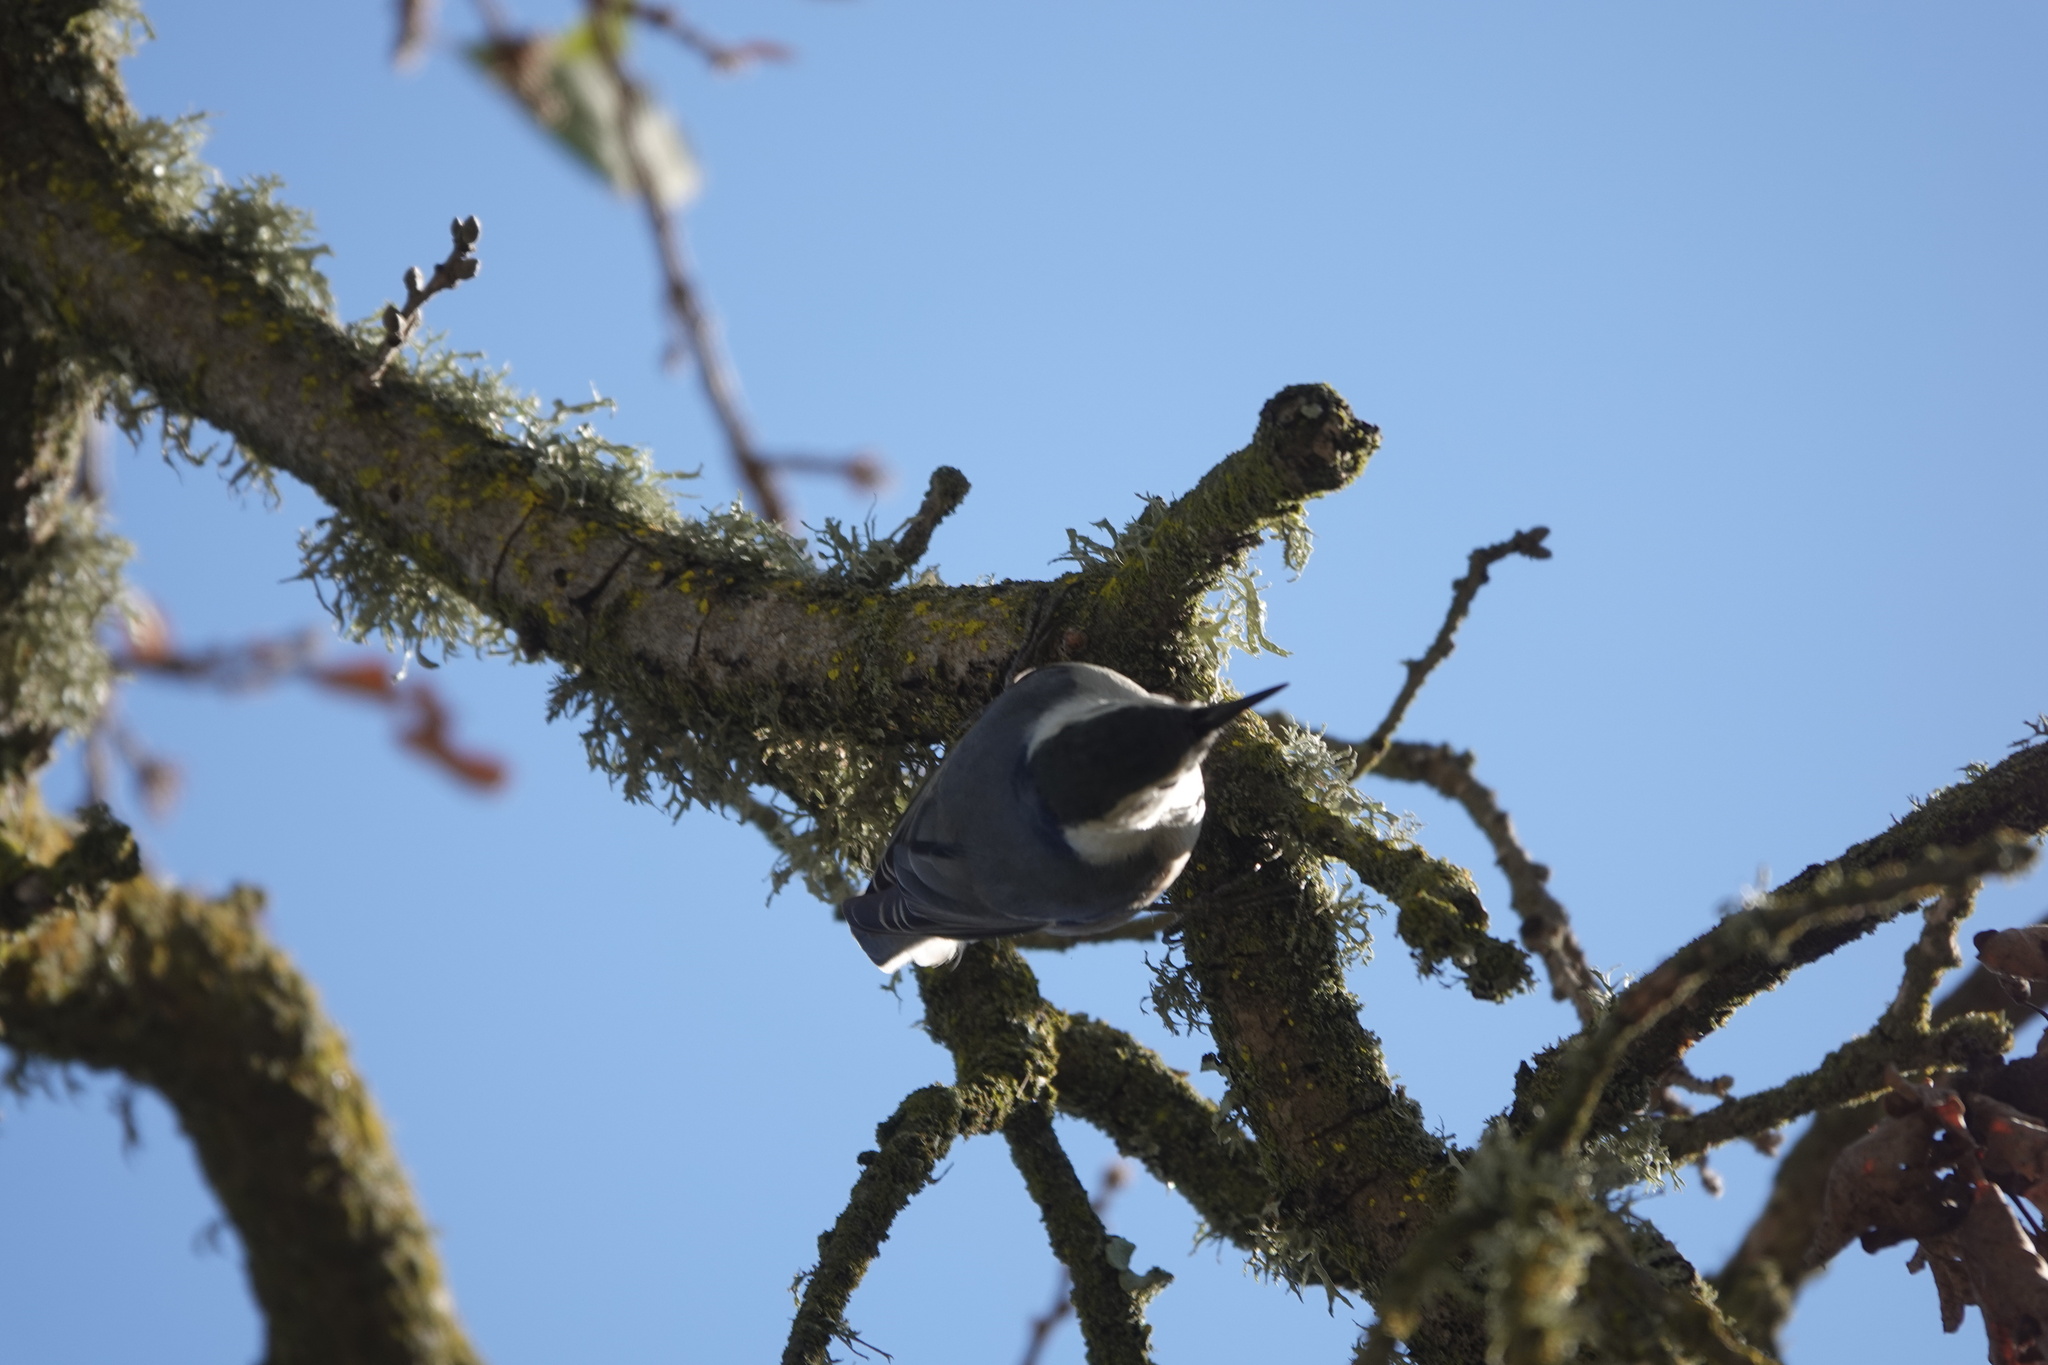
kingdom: Animalia
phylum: Chordata
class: Aves
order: Passeriformes
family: Sittidae
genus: Sitta
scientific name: Sitta carolinensis
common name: White-breasted nuthatch
